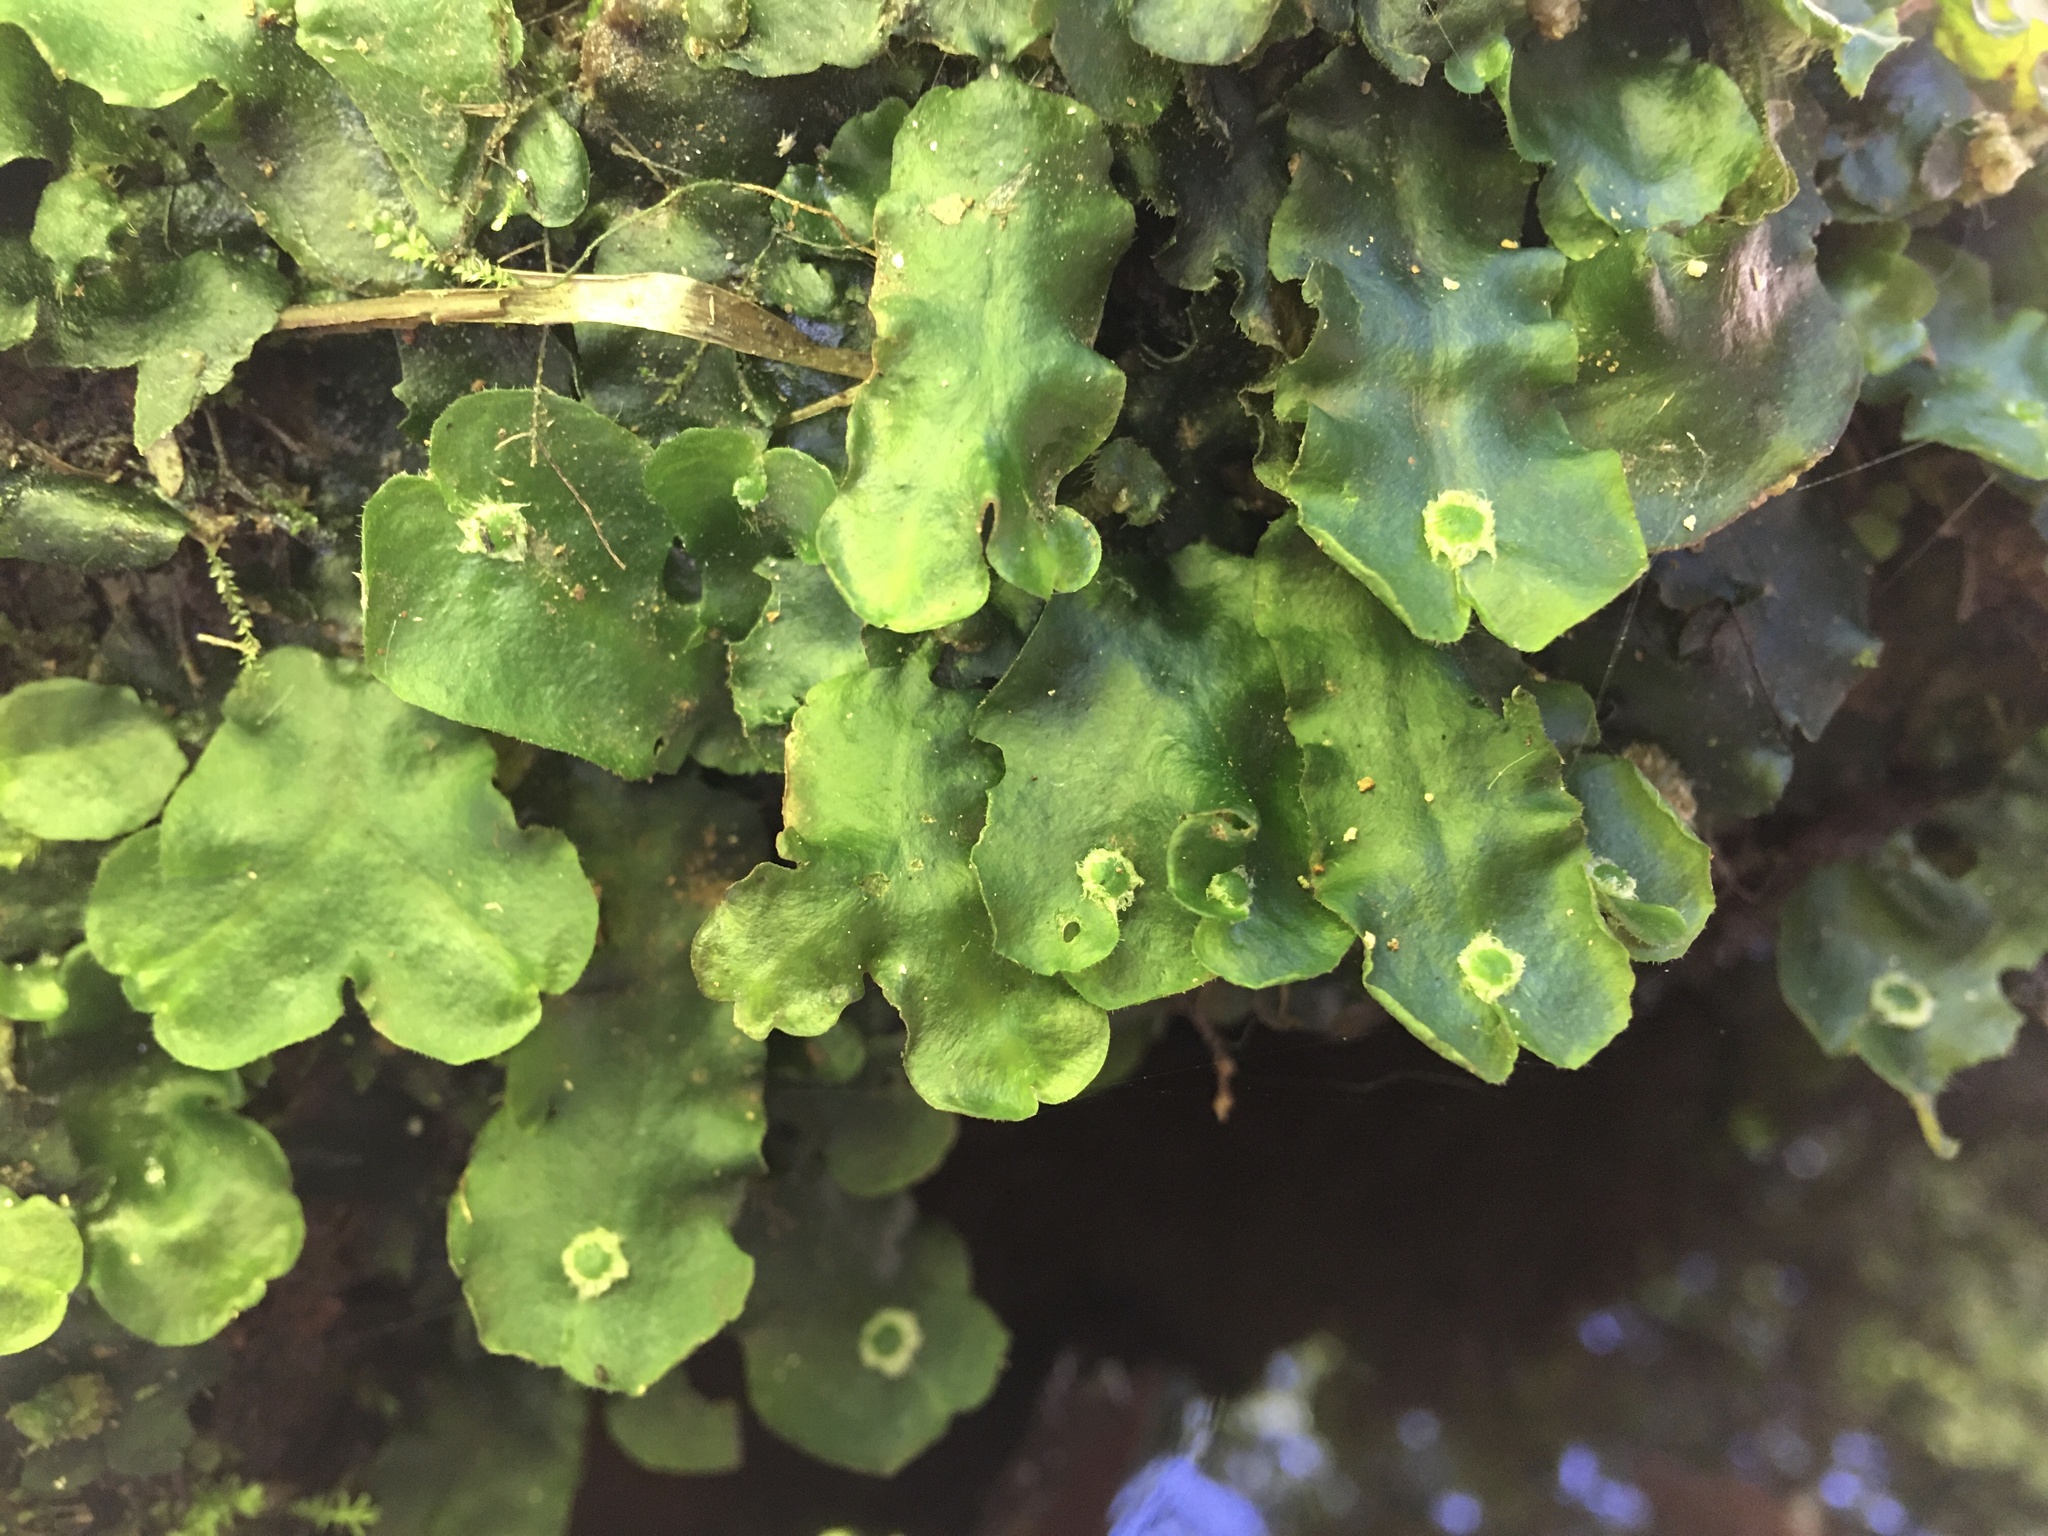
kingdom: Plantae
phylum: Marchantiophyta
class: Marchantiopsida
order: Marchantiales
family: Dumortieraceae
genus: Dumortiera
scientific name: Dumortiera hirsuta
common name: Dumortier's liverwort
